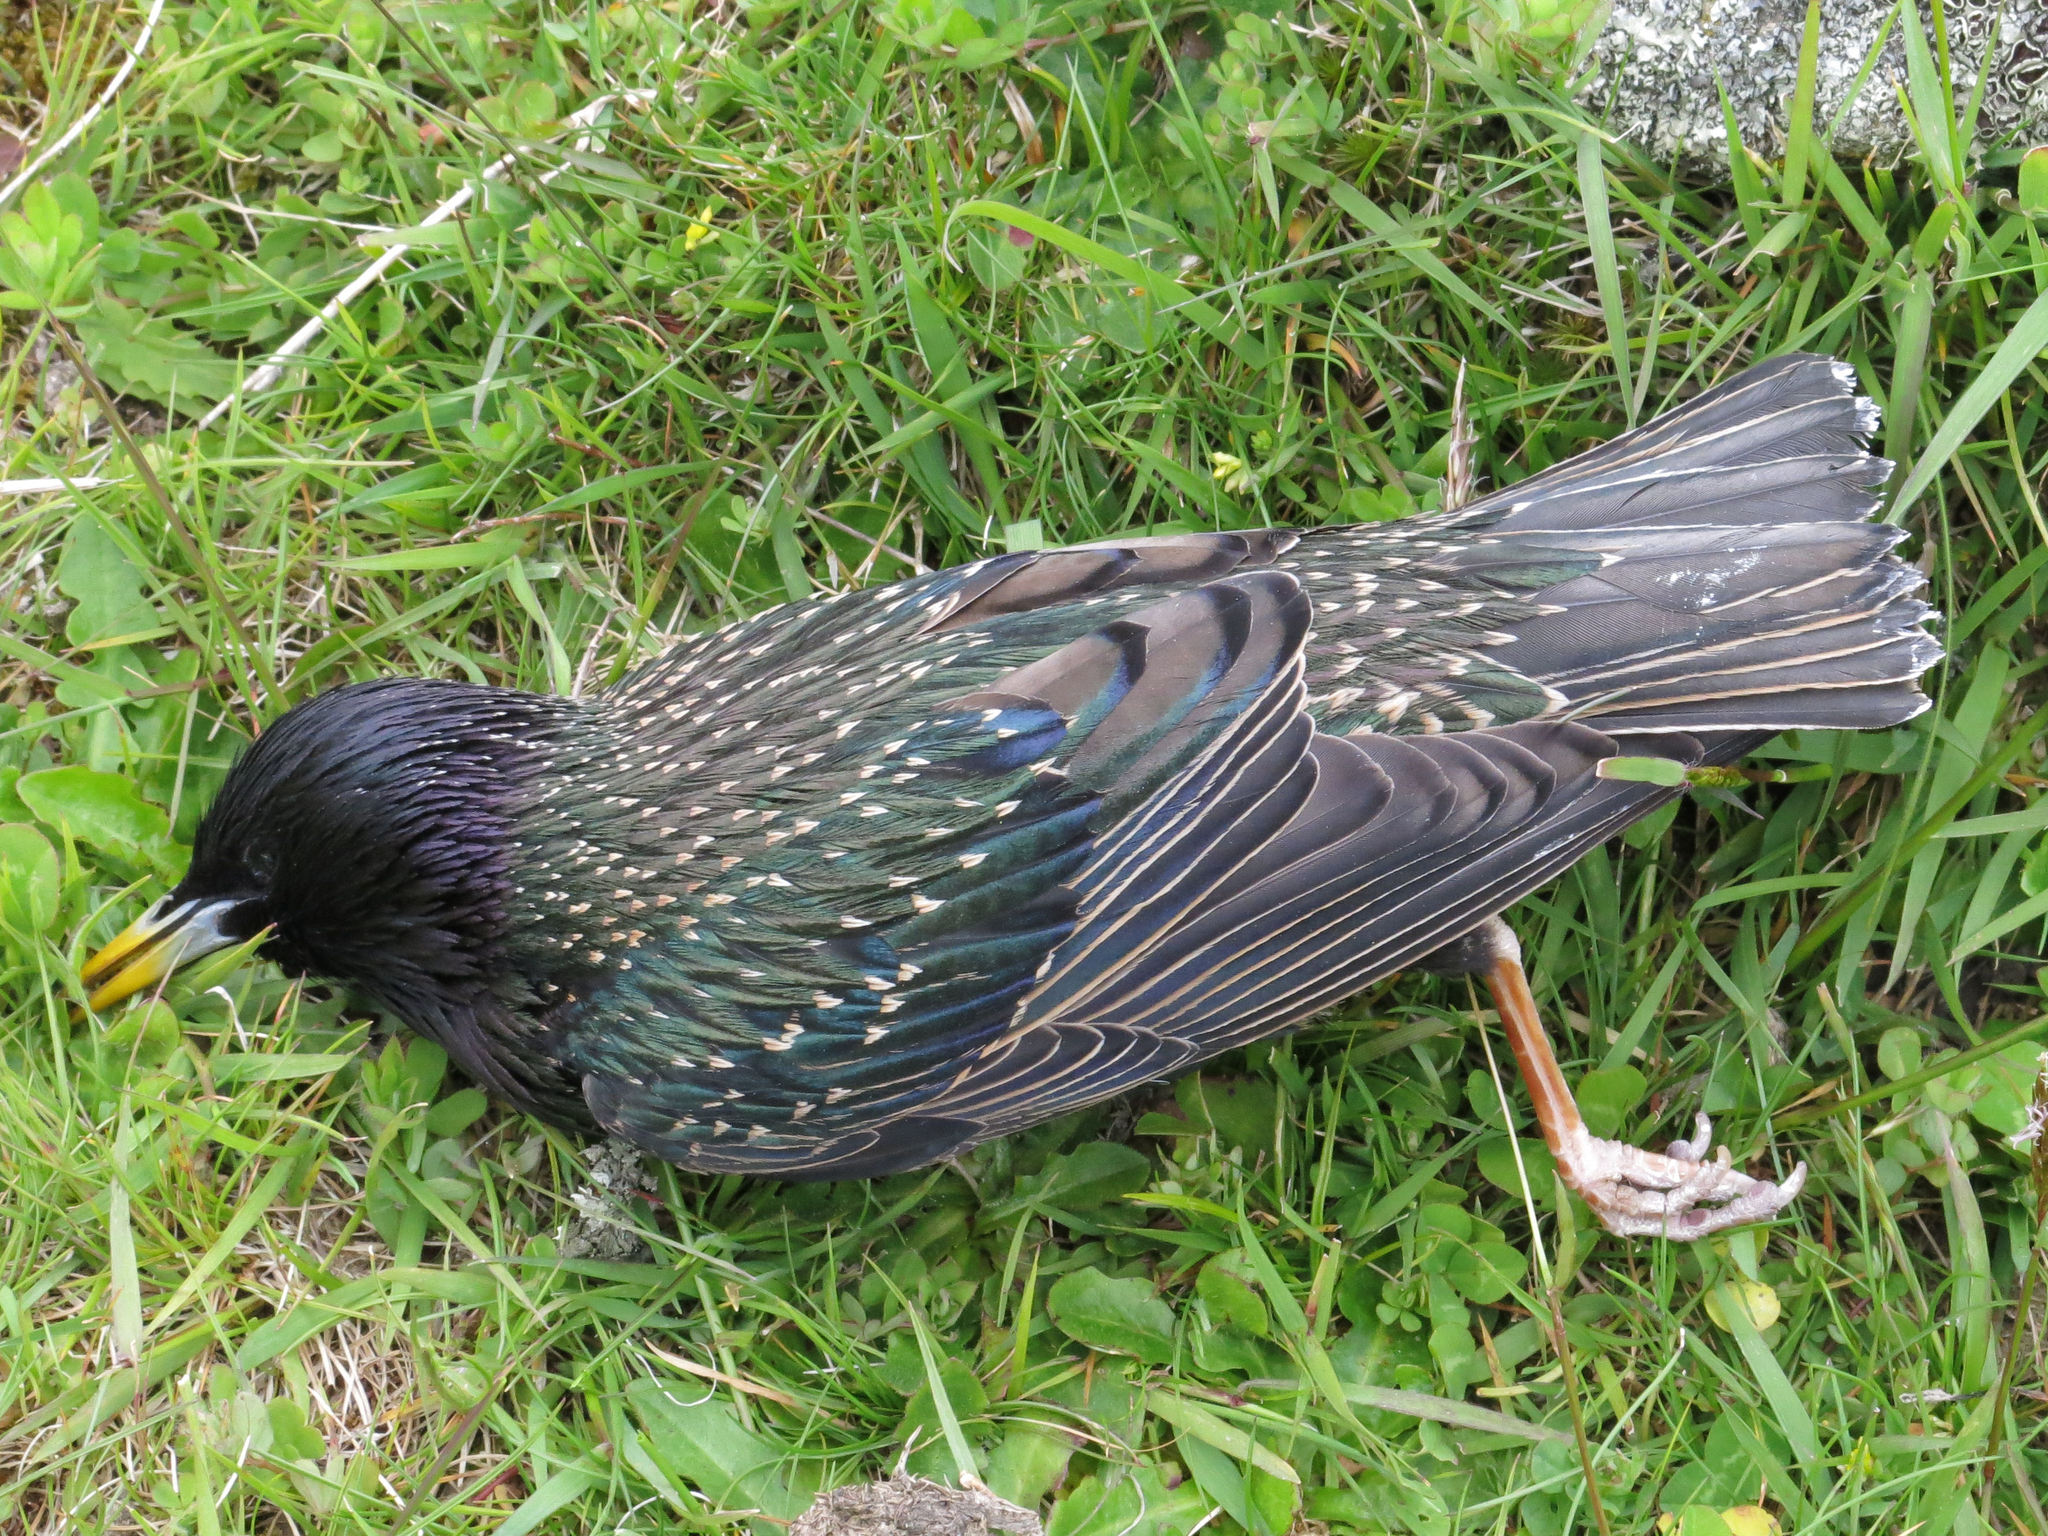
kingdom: Animalia
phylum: Chordata
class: Aves
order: Passeriformes
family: Sturnidae
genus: Sturnus
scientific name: Sturnus vulgaris
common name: Common starling
